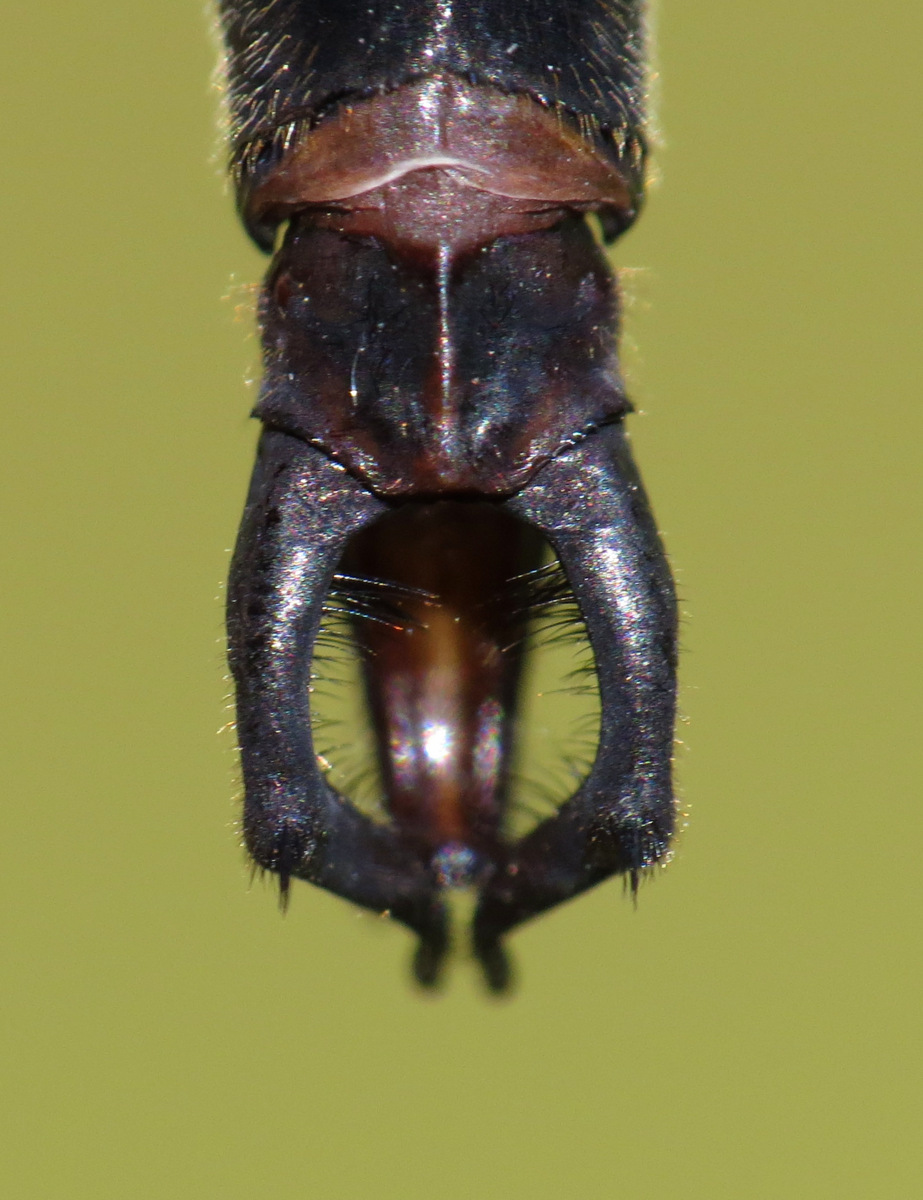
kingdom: Animalia
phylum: Arthropoda
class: Insecta
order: Odonata
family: Corduliidae
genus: Somatochlora
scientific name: Somatochlora tenebrosa
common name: Clamp-tipped emerald
